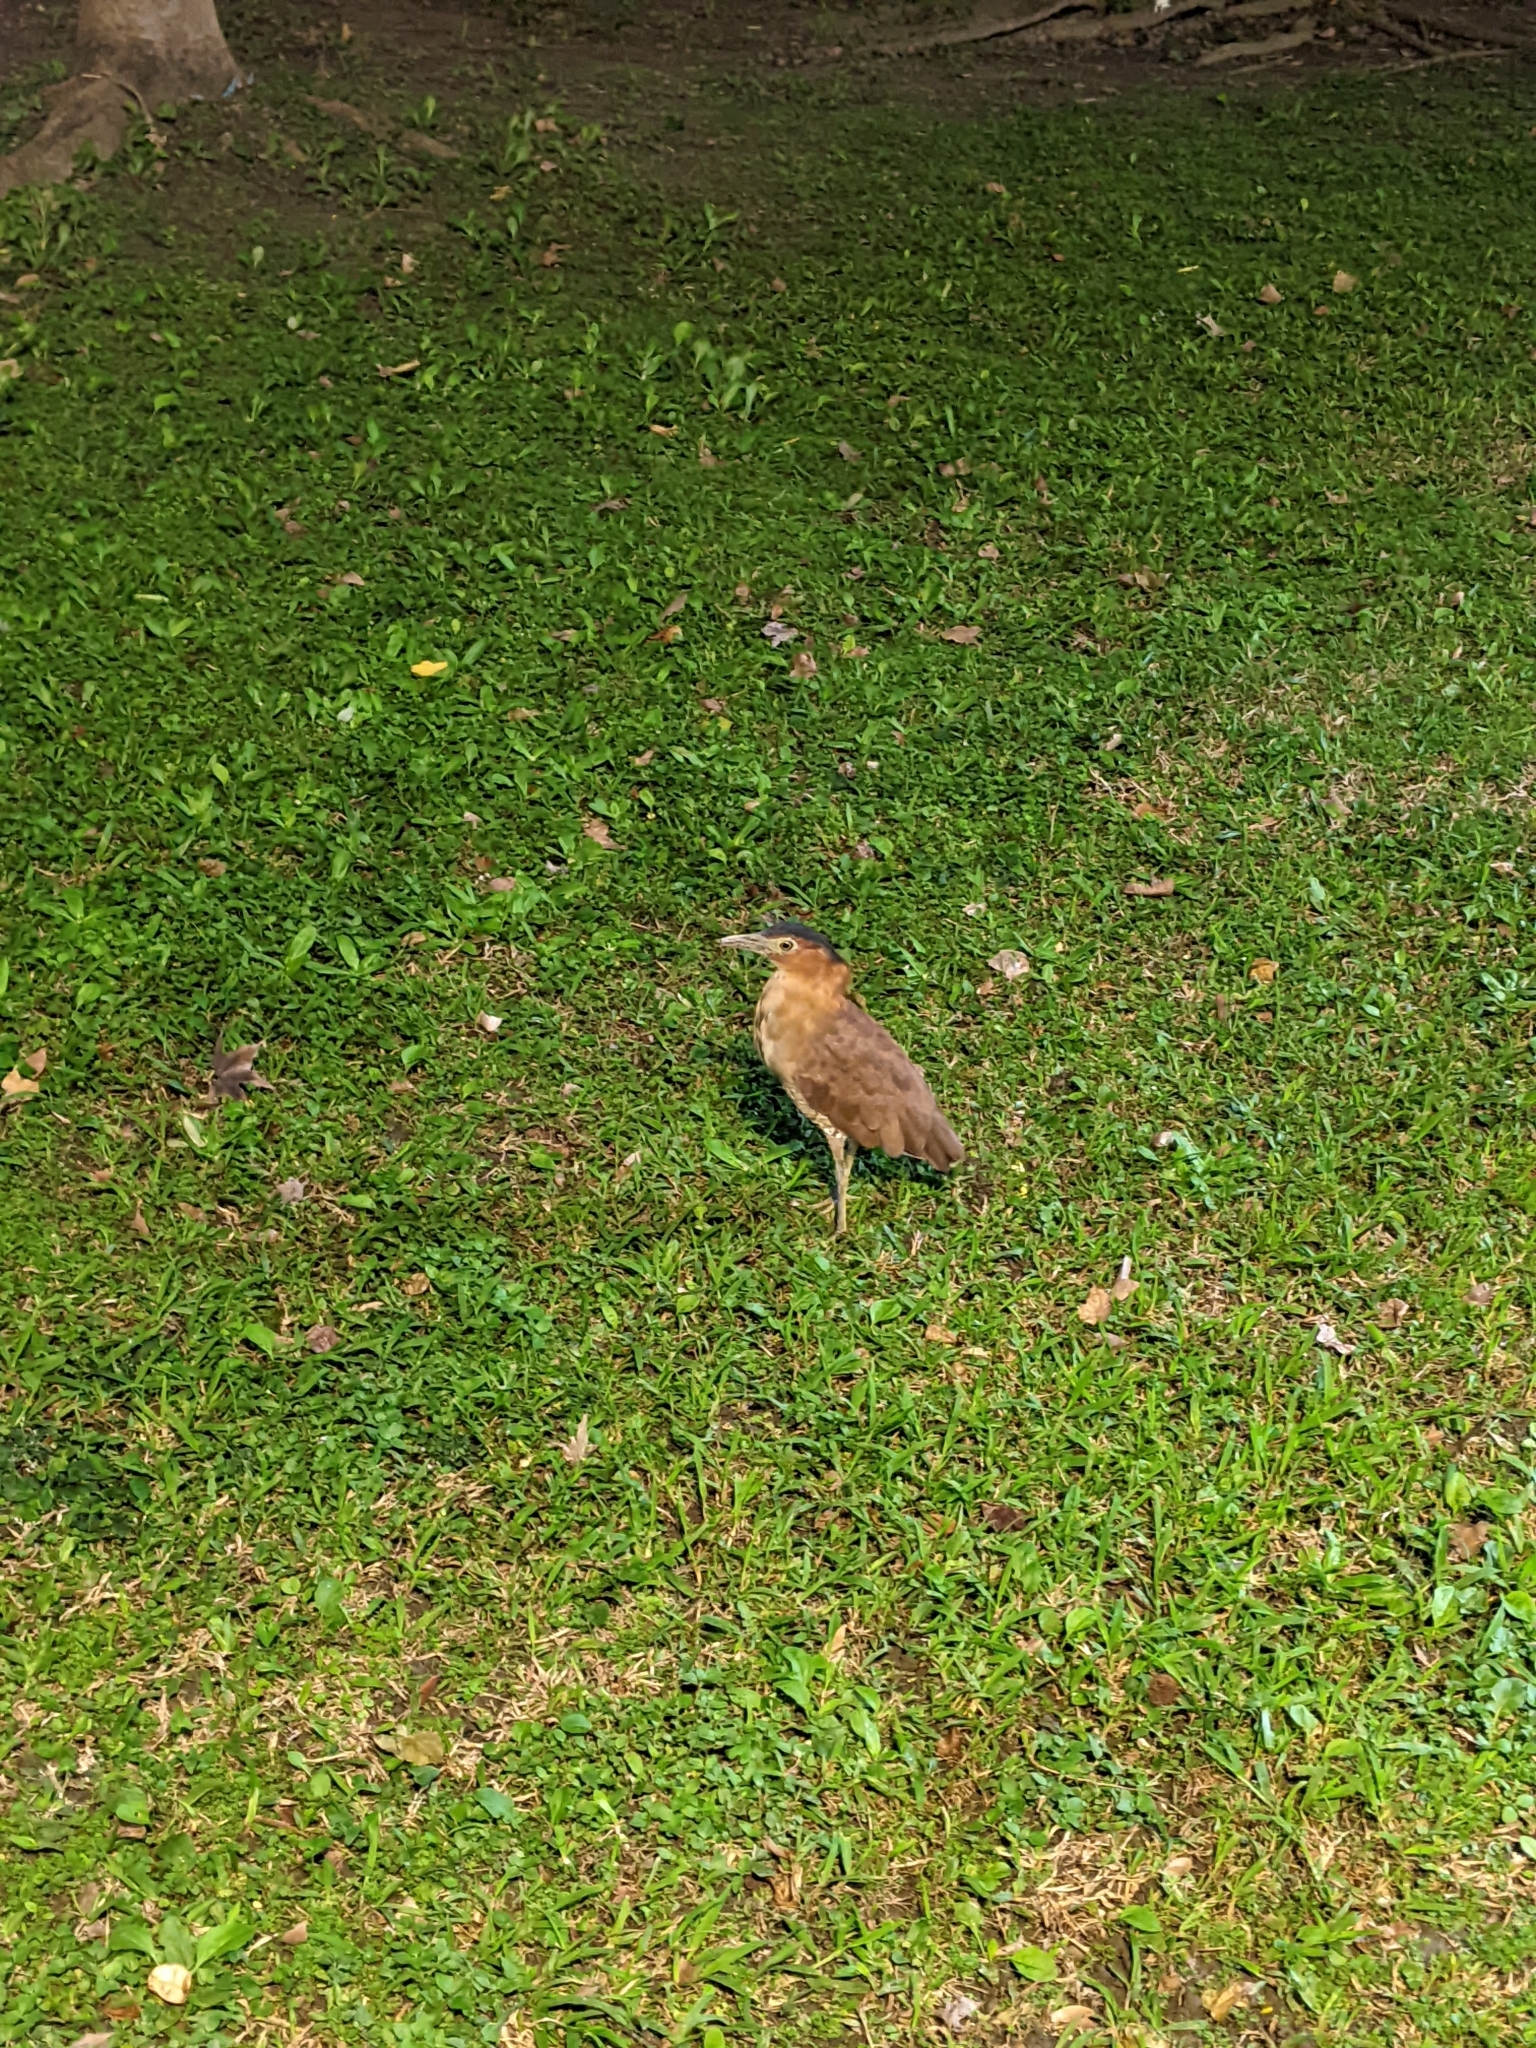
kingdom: Animalia
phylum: Chordata
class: Aves
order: Pelecaniformes
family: Ardeidae
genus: Gorsachius
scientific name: Gorsachius melanolophus
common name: Malayan night heron
